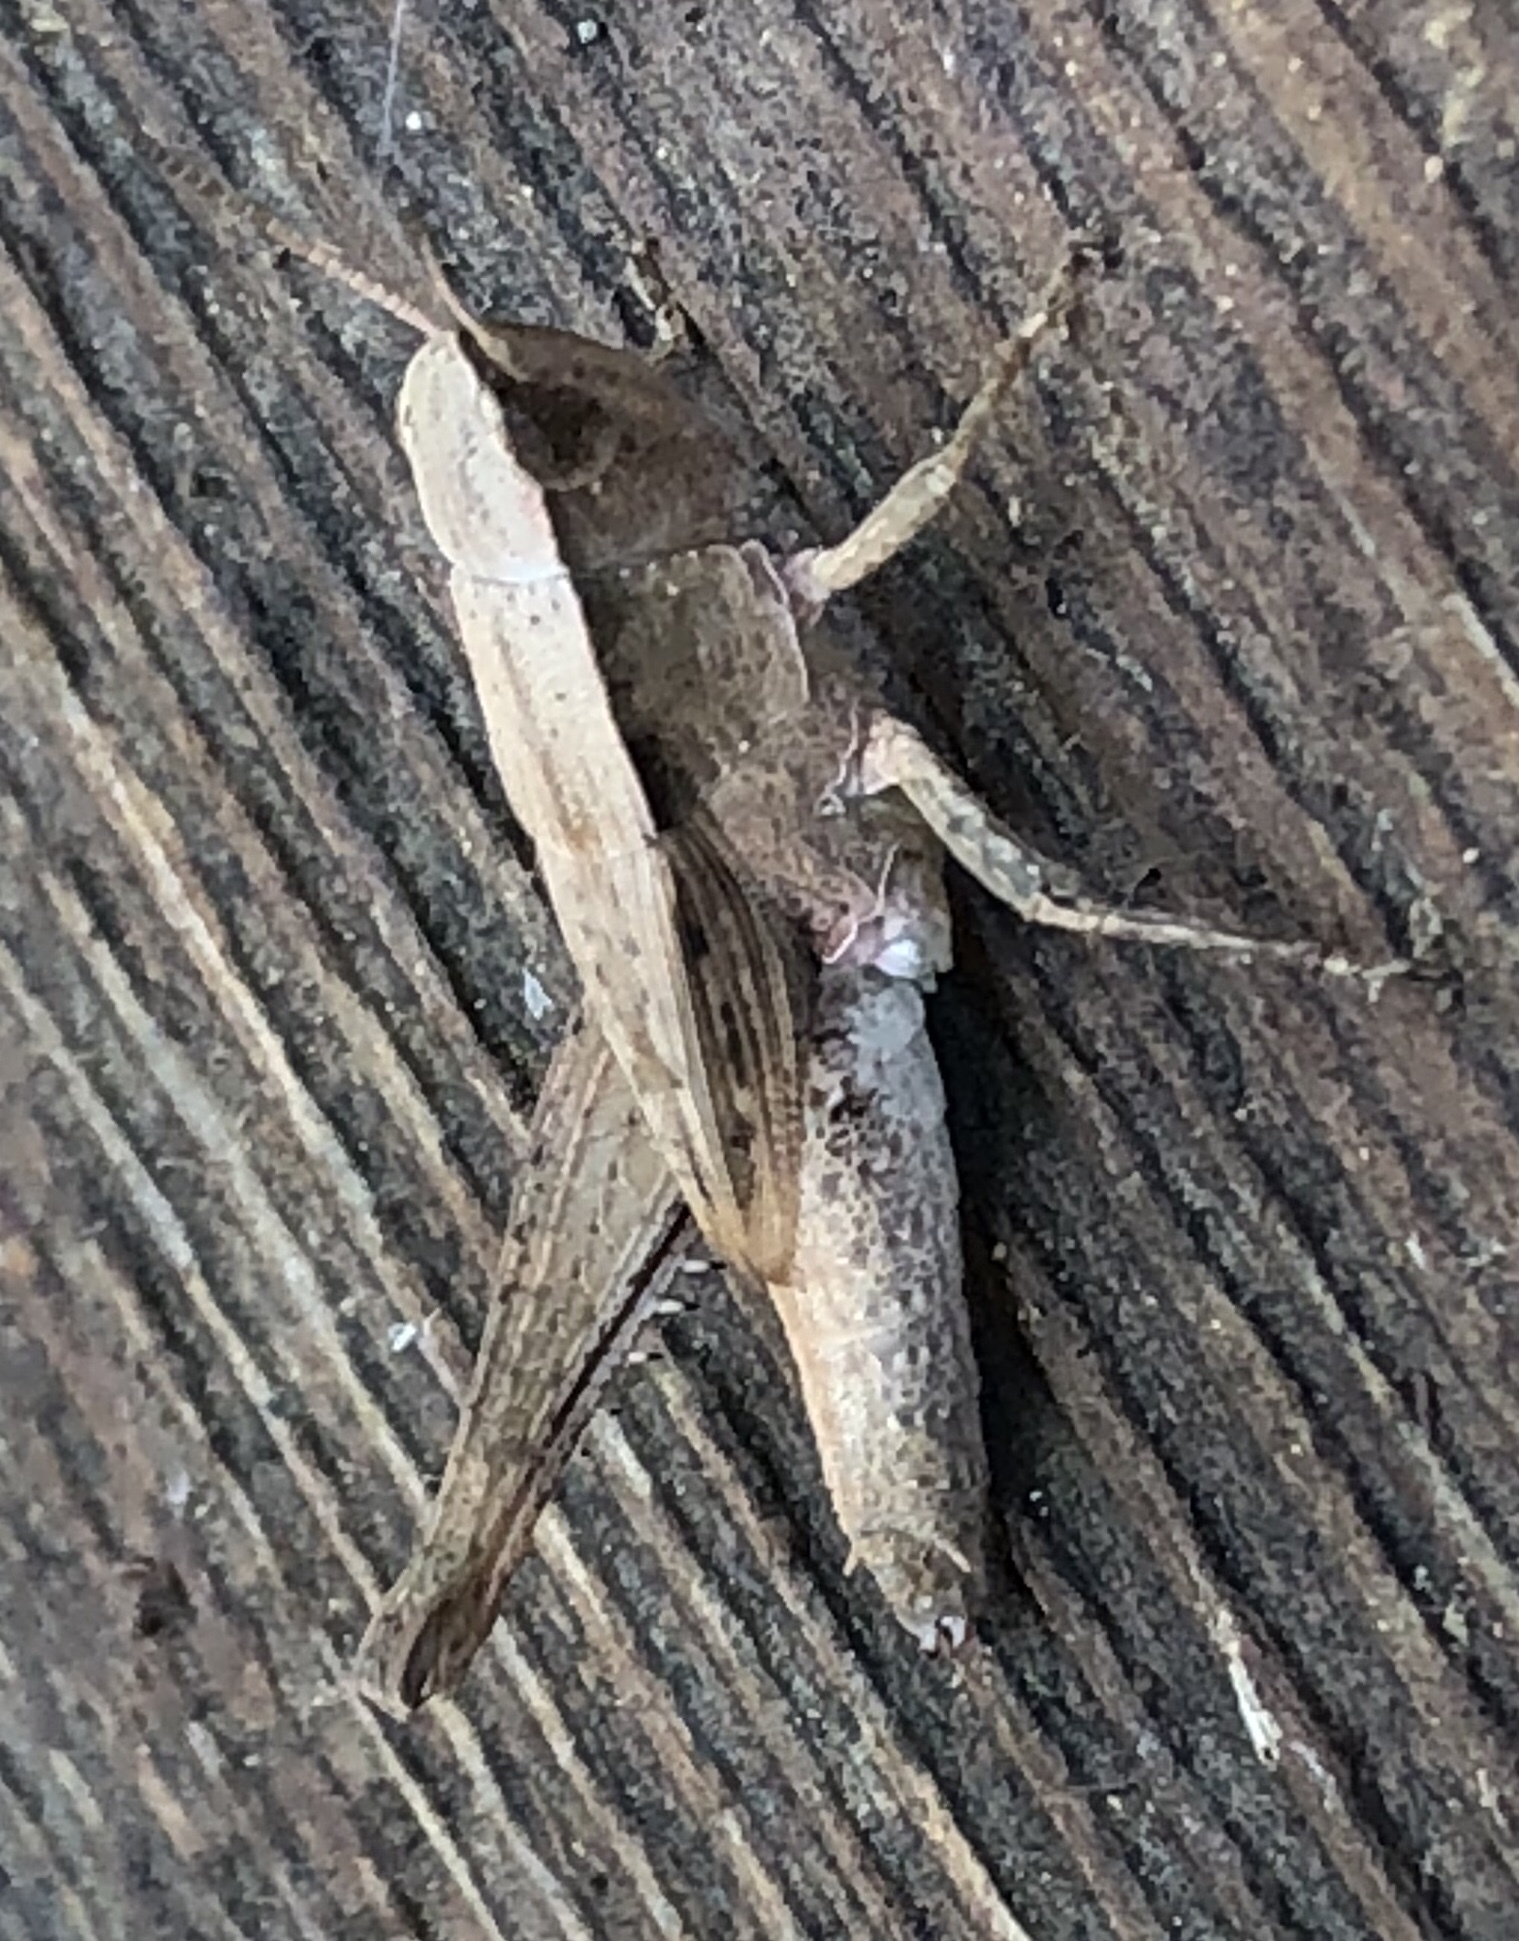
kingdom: Animalia
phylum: Arthropoda
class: Insecta
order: Orthoptera
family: Acrididae
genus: Dichromorpha
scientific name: Dichromorpha viridis
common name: Short-winged green grasshopper
